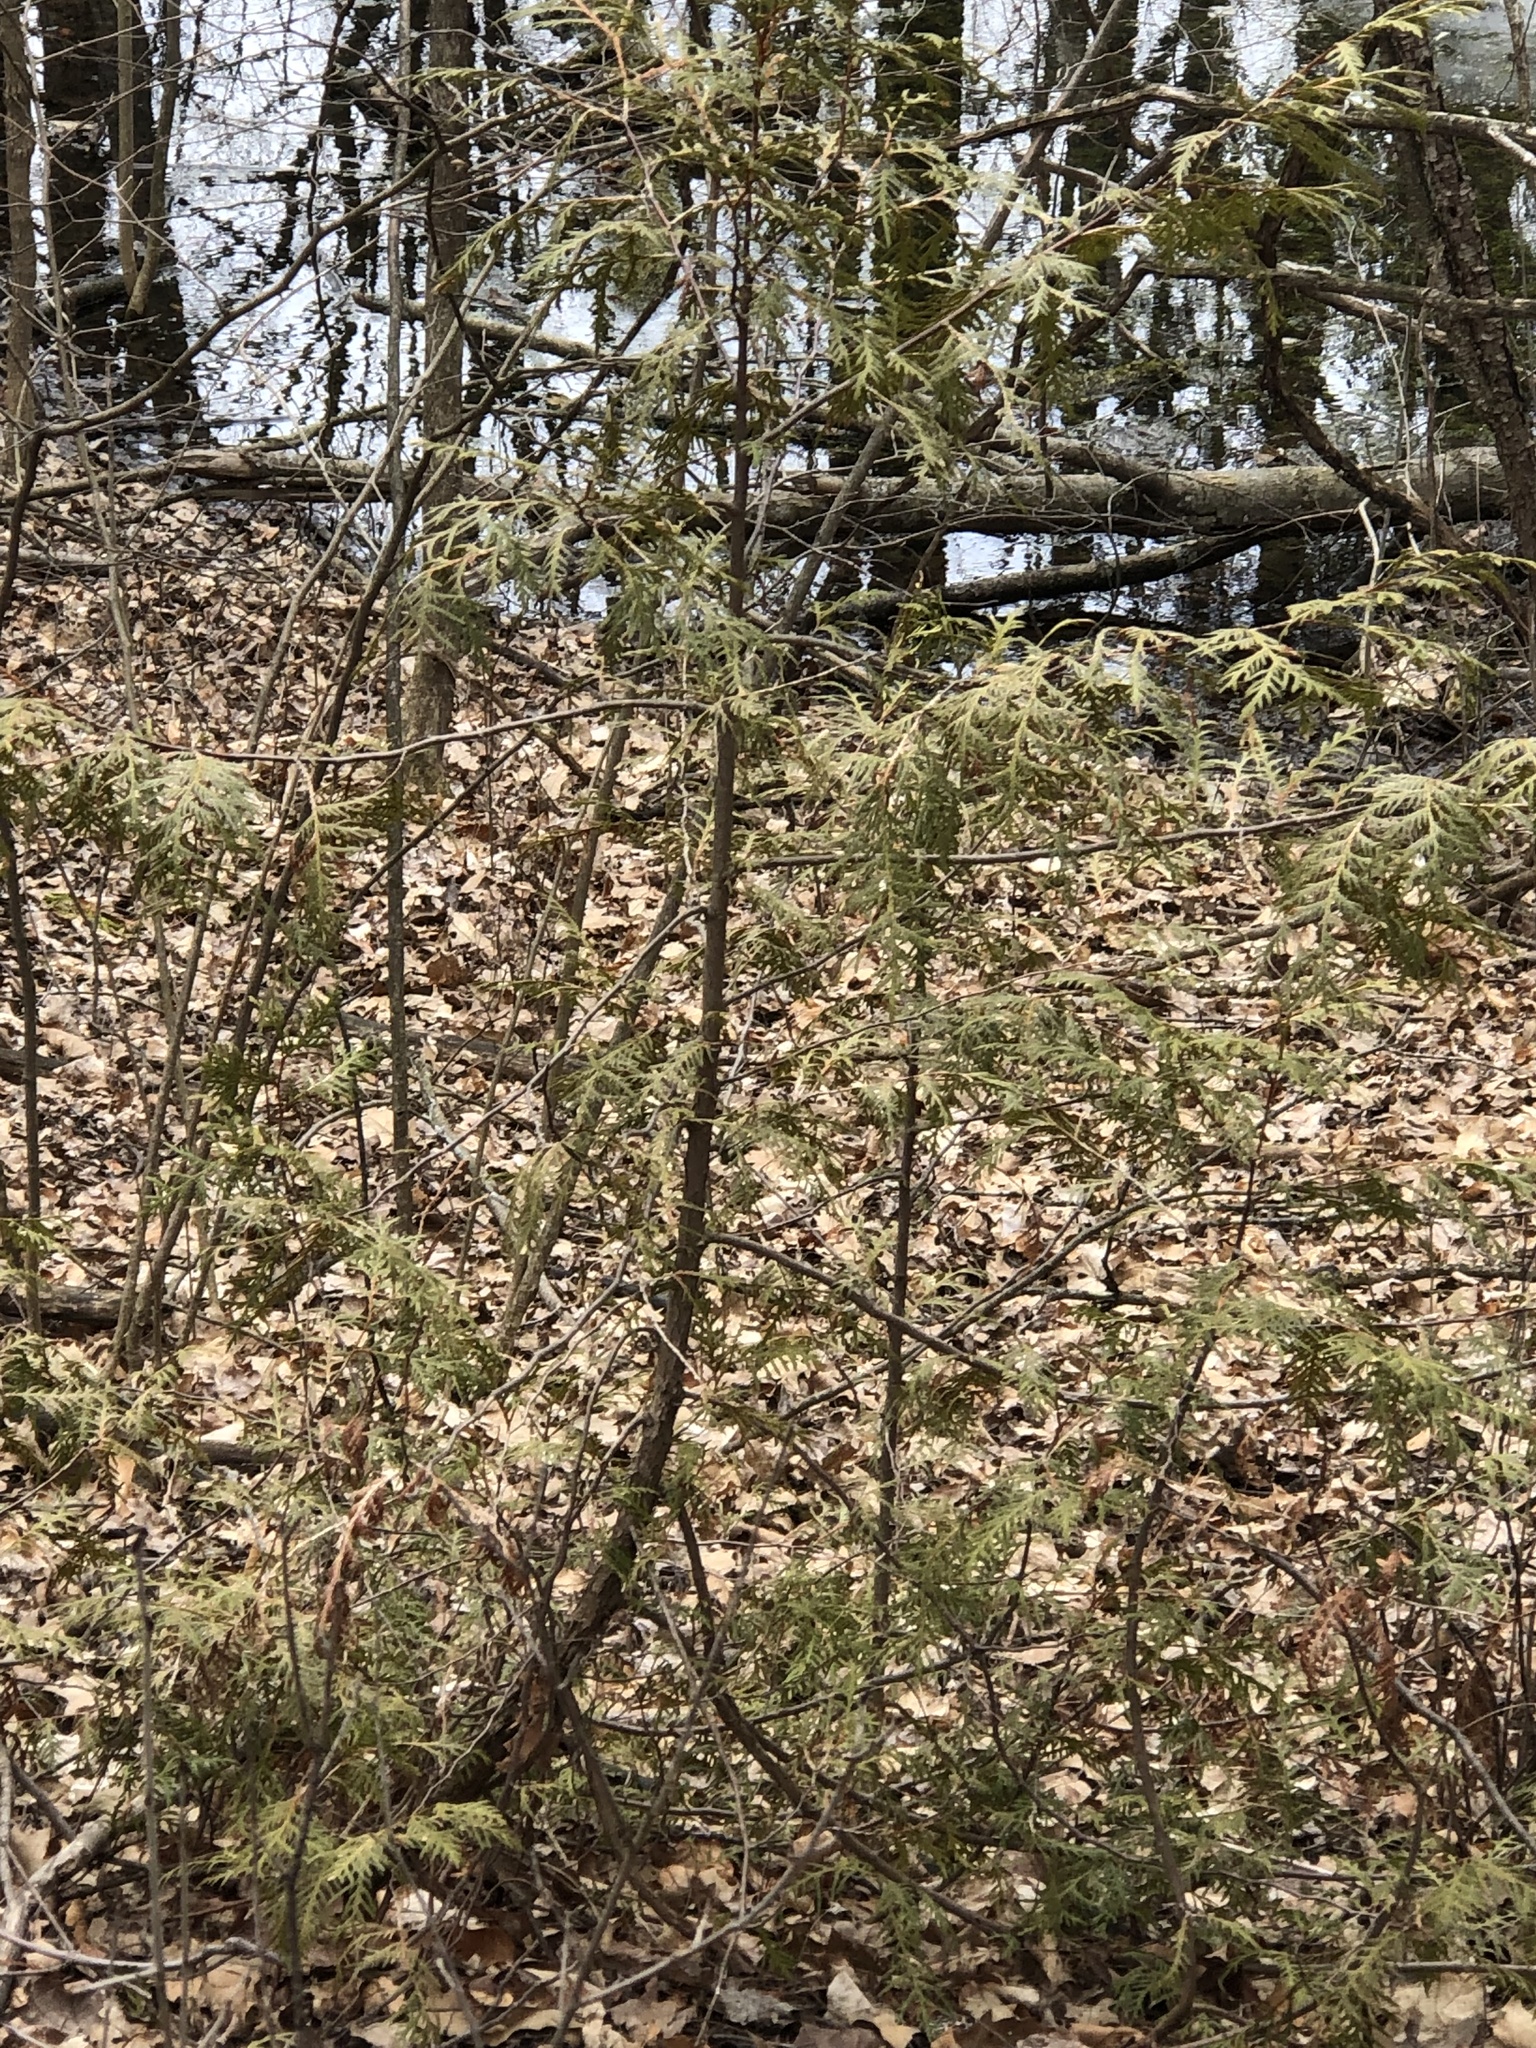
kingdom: Plantae
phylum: Tracheophyta
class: Pinopsida
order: Pinales
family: Cupressaceae
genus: Thuja
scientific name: Thuja occidentalis
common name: Northern white-cedar
